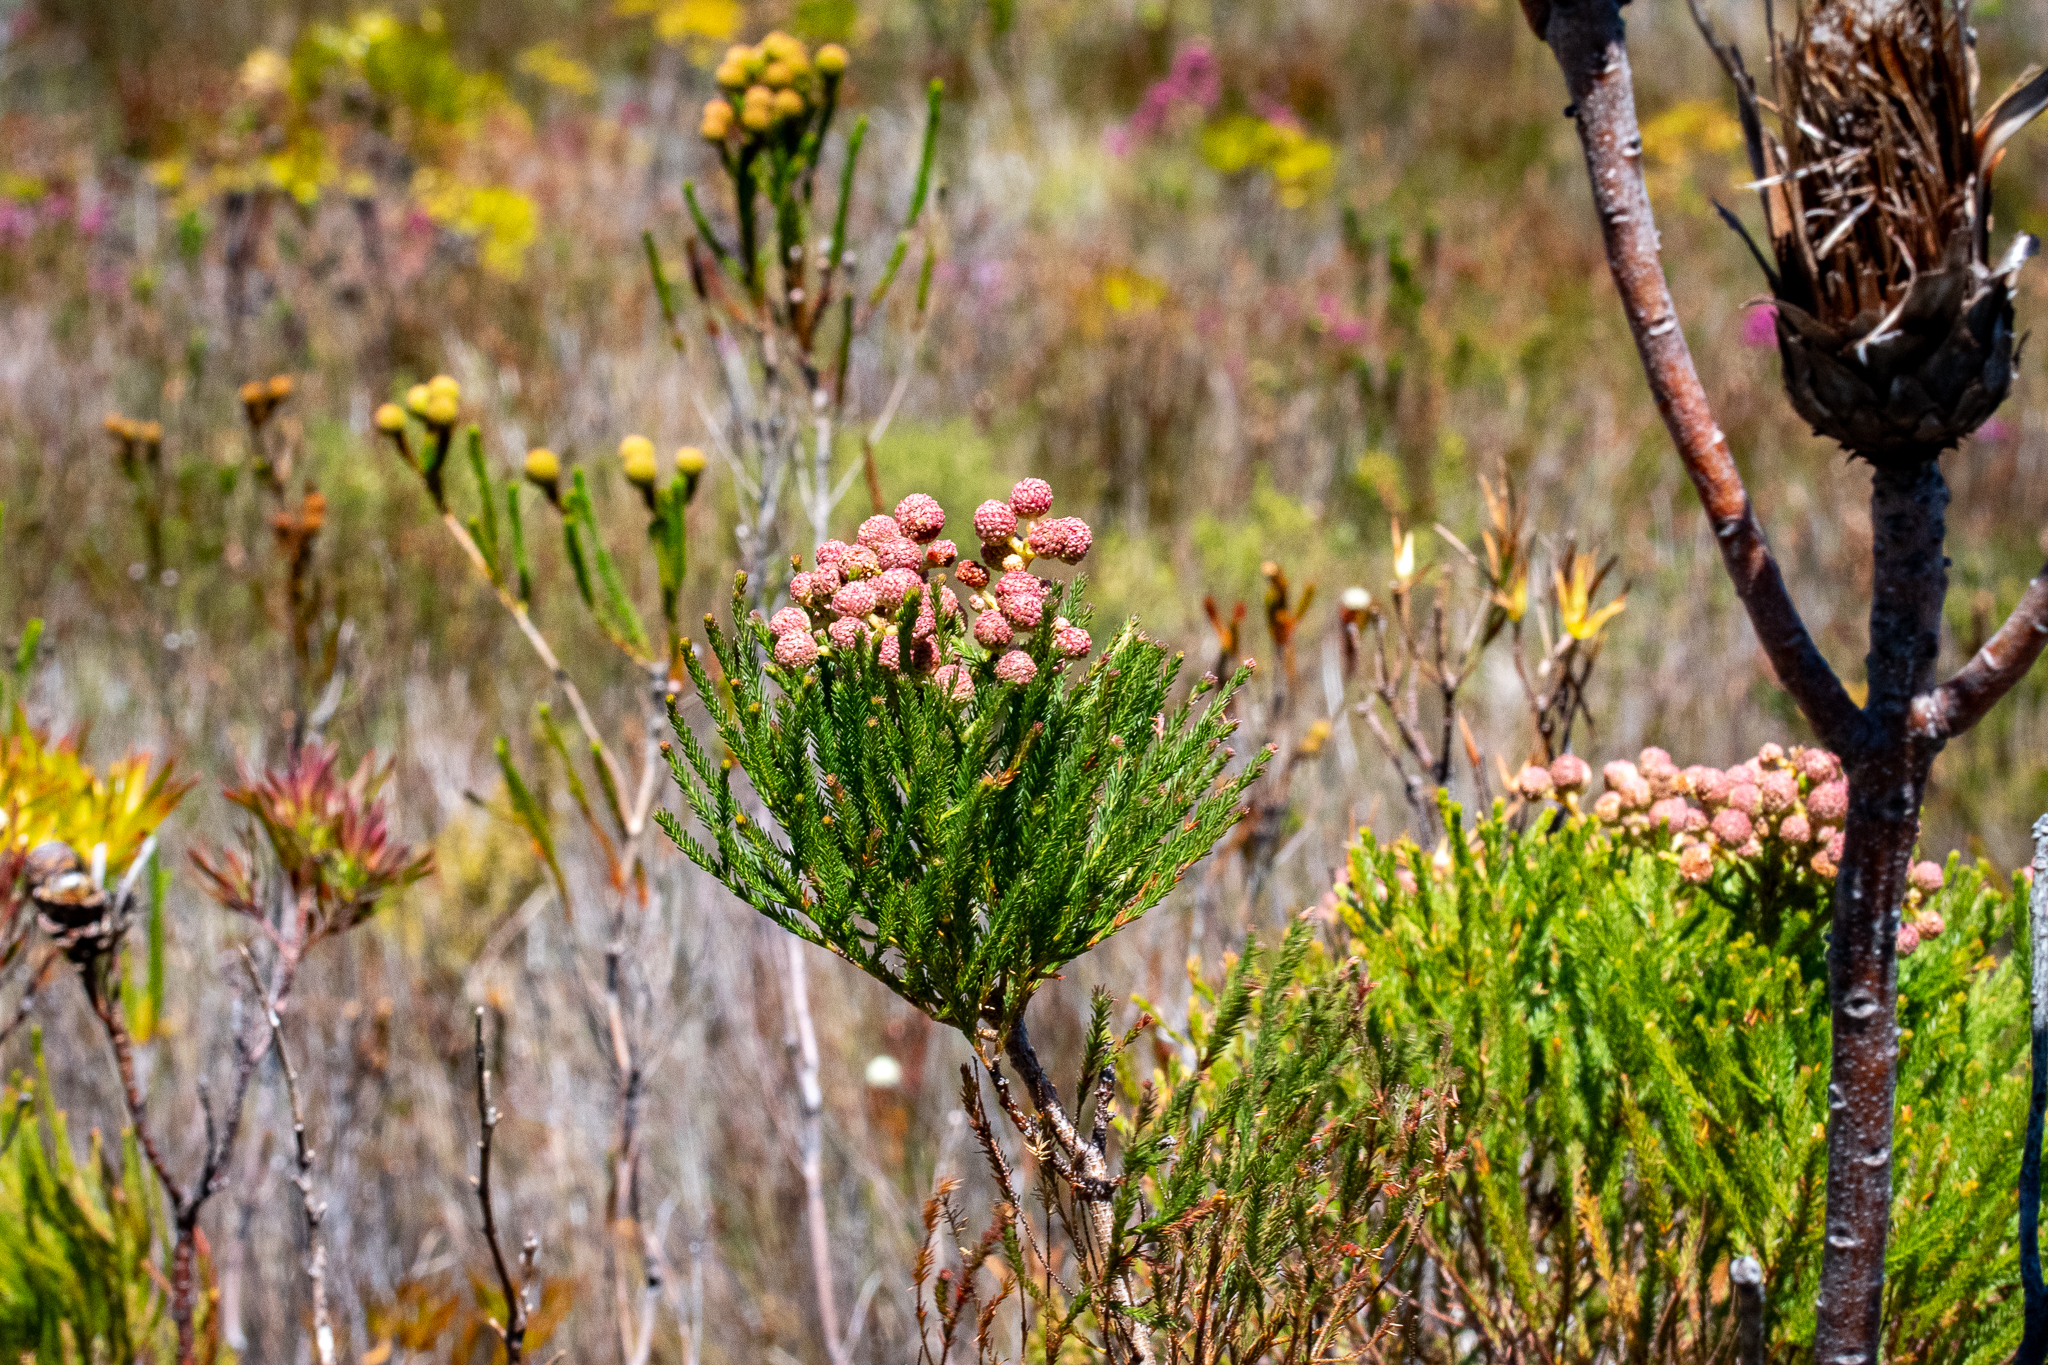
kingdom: Plantae
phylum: Tracheophyta
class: Magnoliopsida
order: Bruniales
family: Bruniaceae
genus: Berzelia
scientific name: Berzelia lanuginosa
